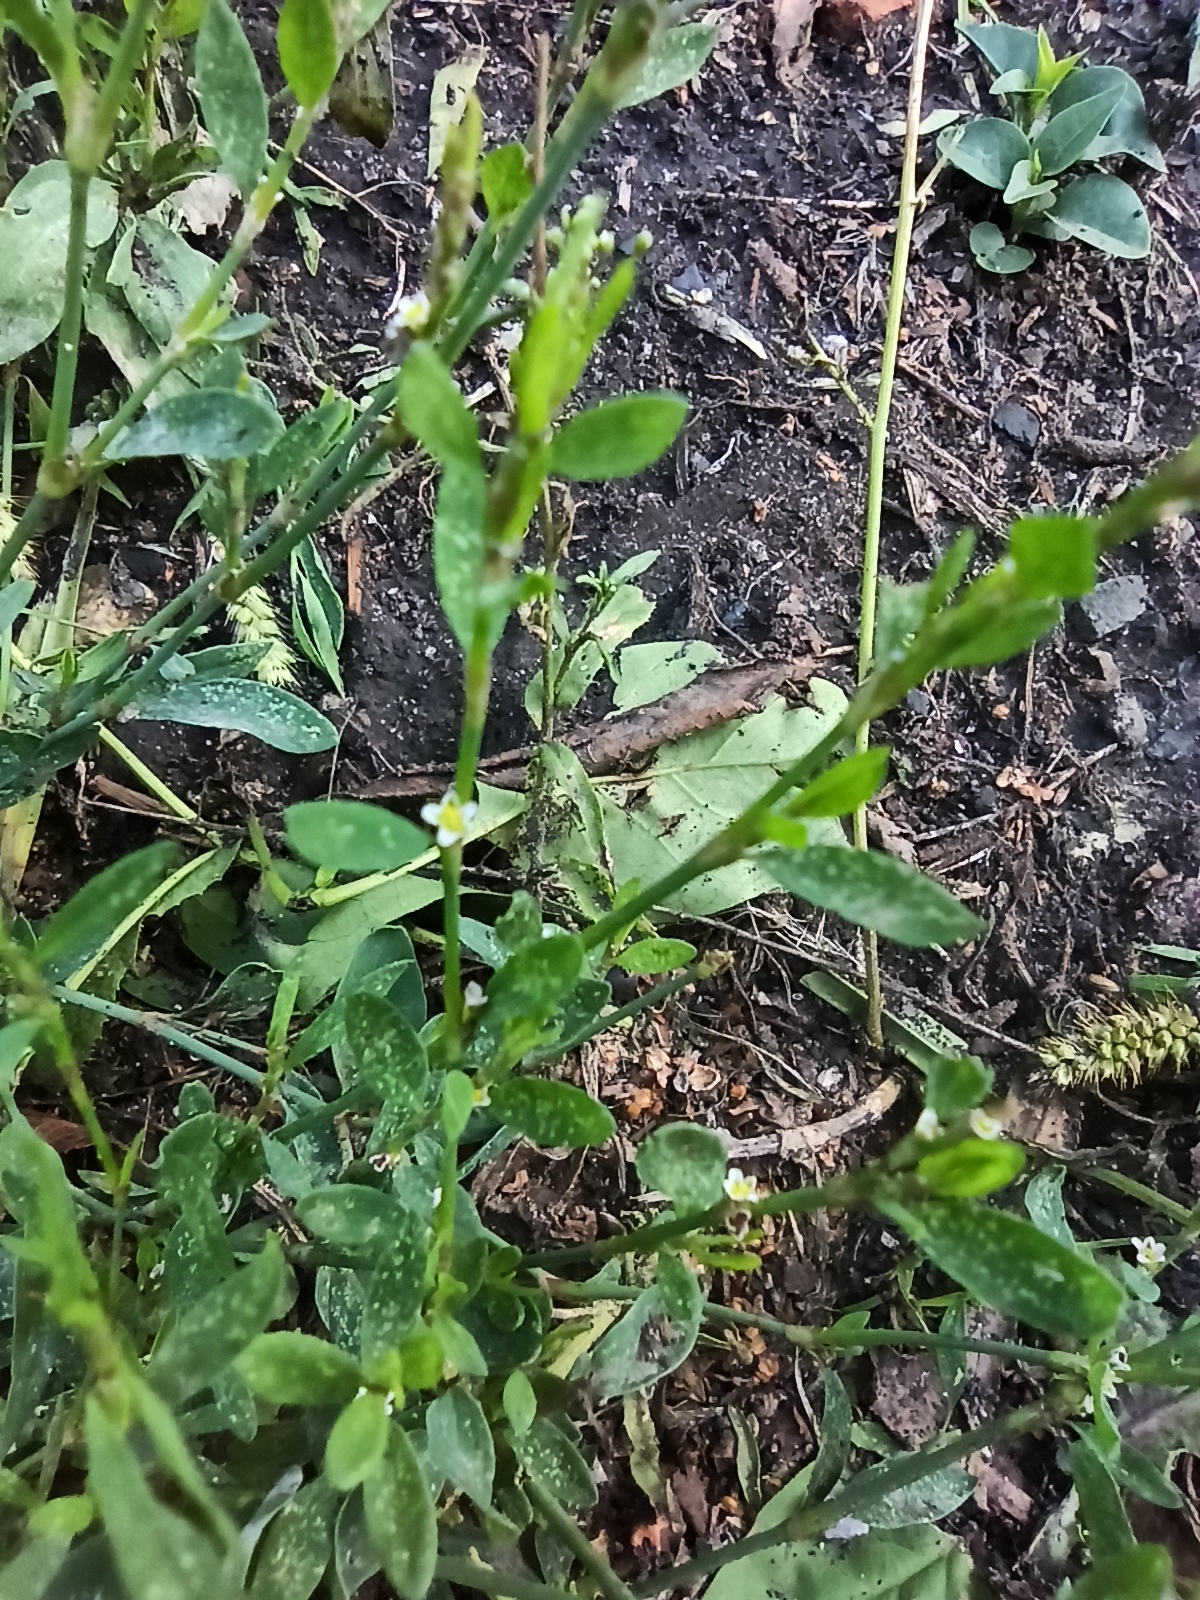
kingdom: Plantae
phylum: Tracheophyta
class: Magnoliopsida
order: Caryophyllales
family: Polygonaceae
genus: Polygonum
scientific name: Polygonum
